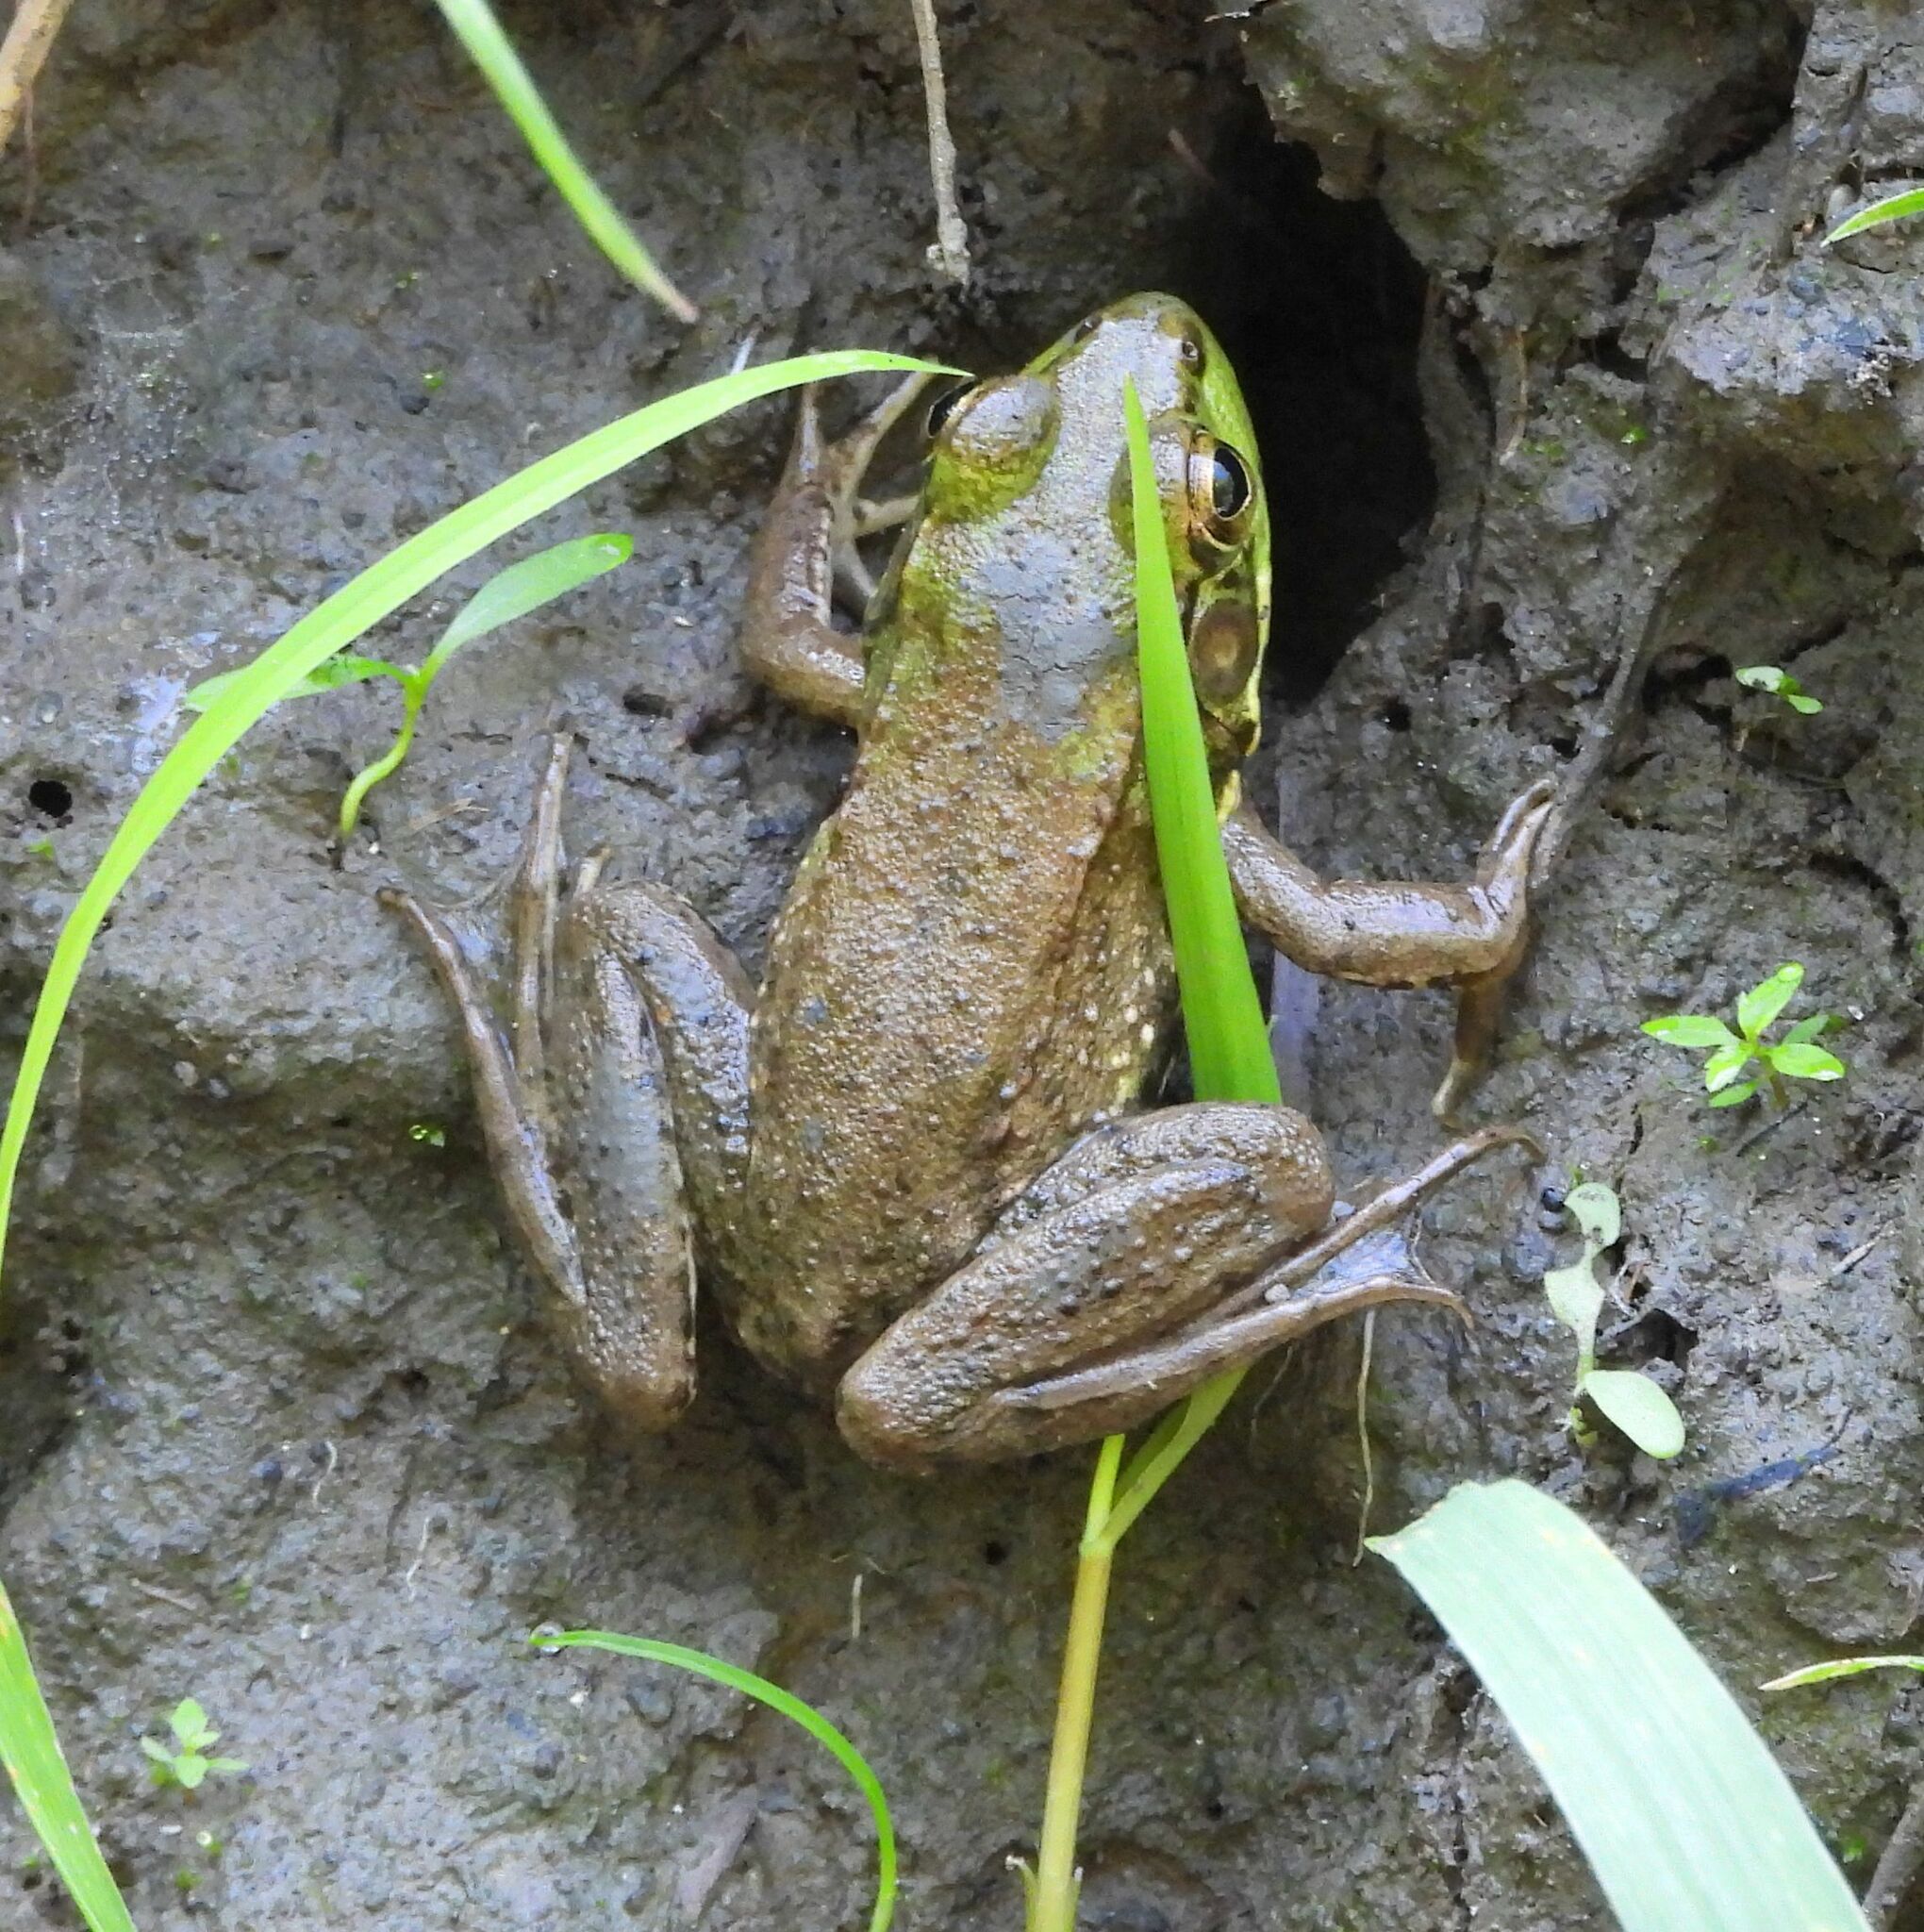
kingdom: Animalia
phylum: Chordata
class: Amphibia
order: Anura
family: Ranidae
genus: Lithobates
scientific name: Lithobates clamitans
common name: Green frog
